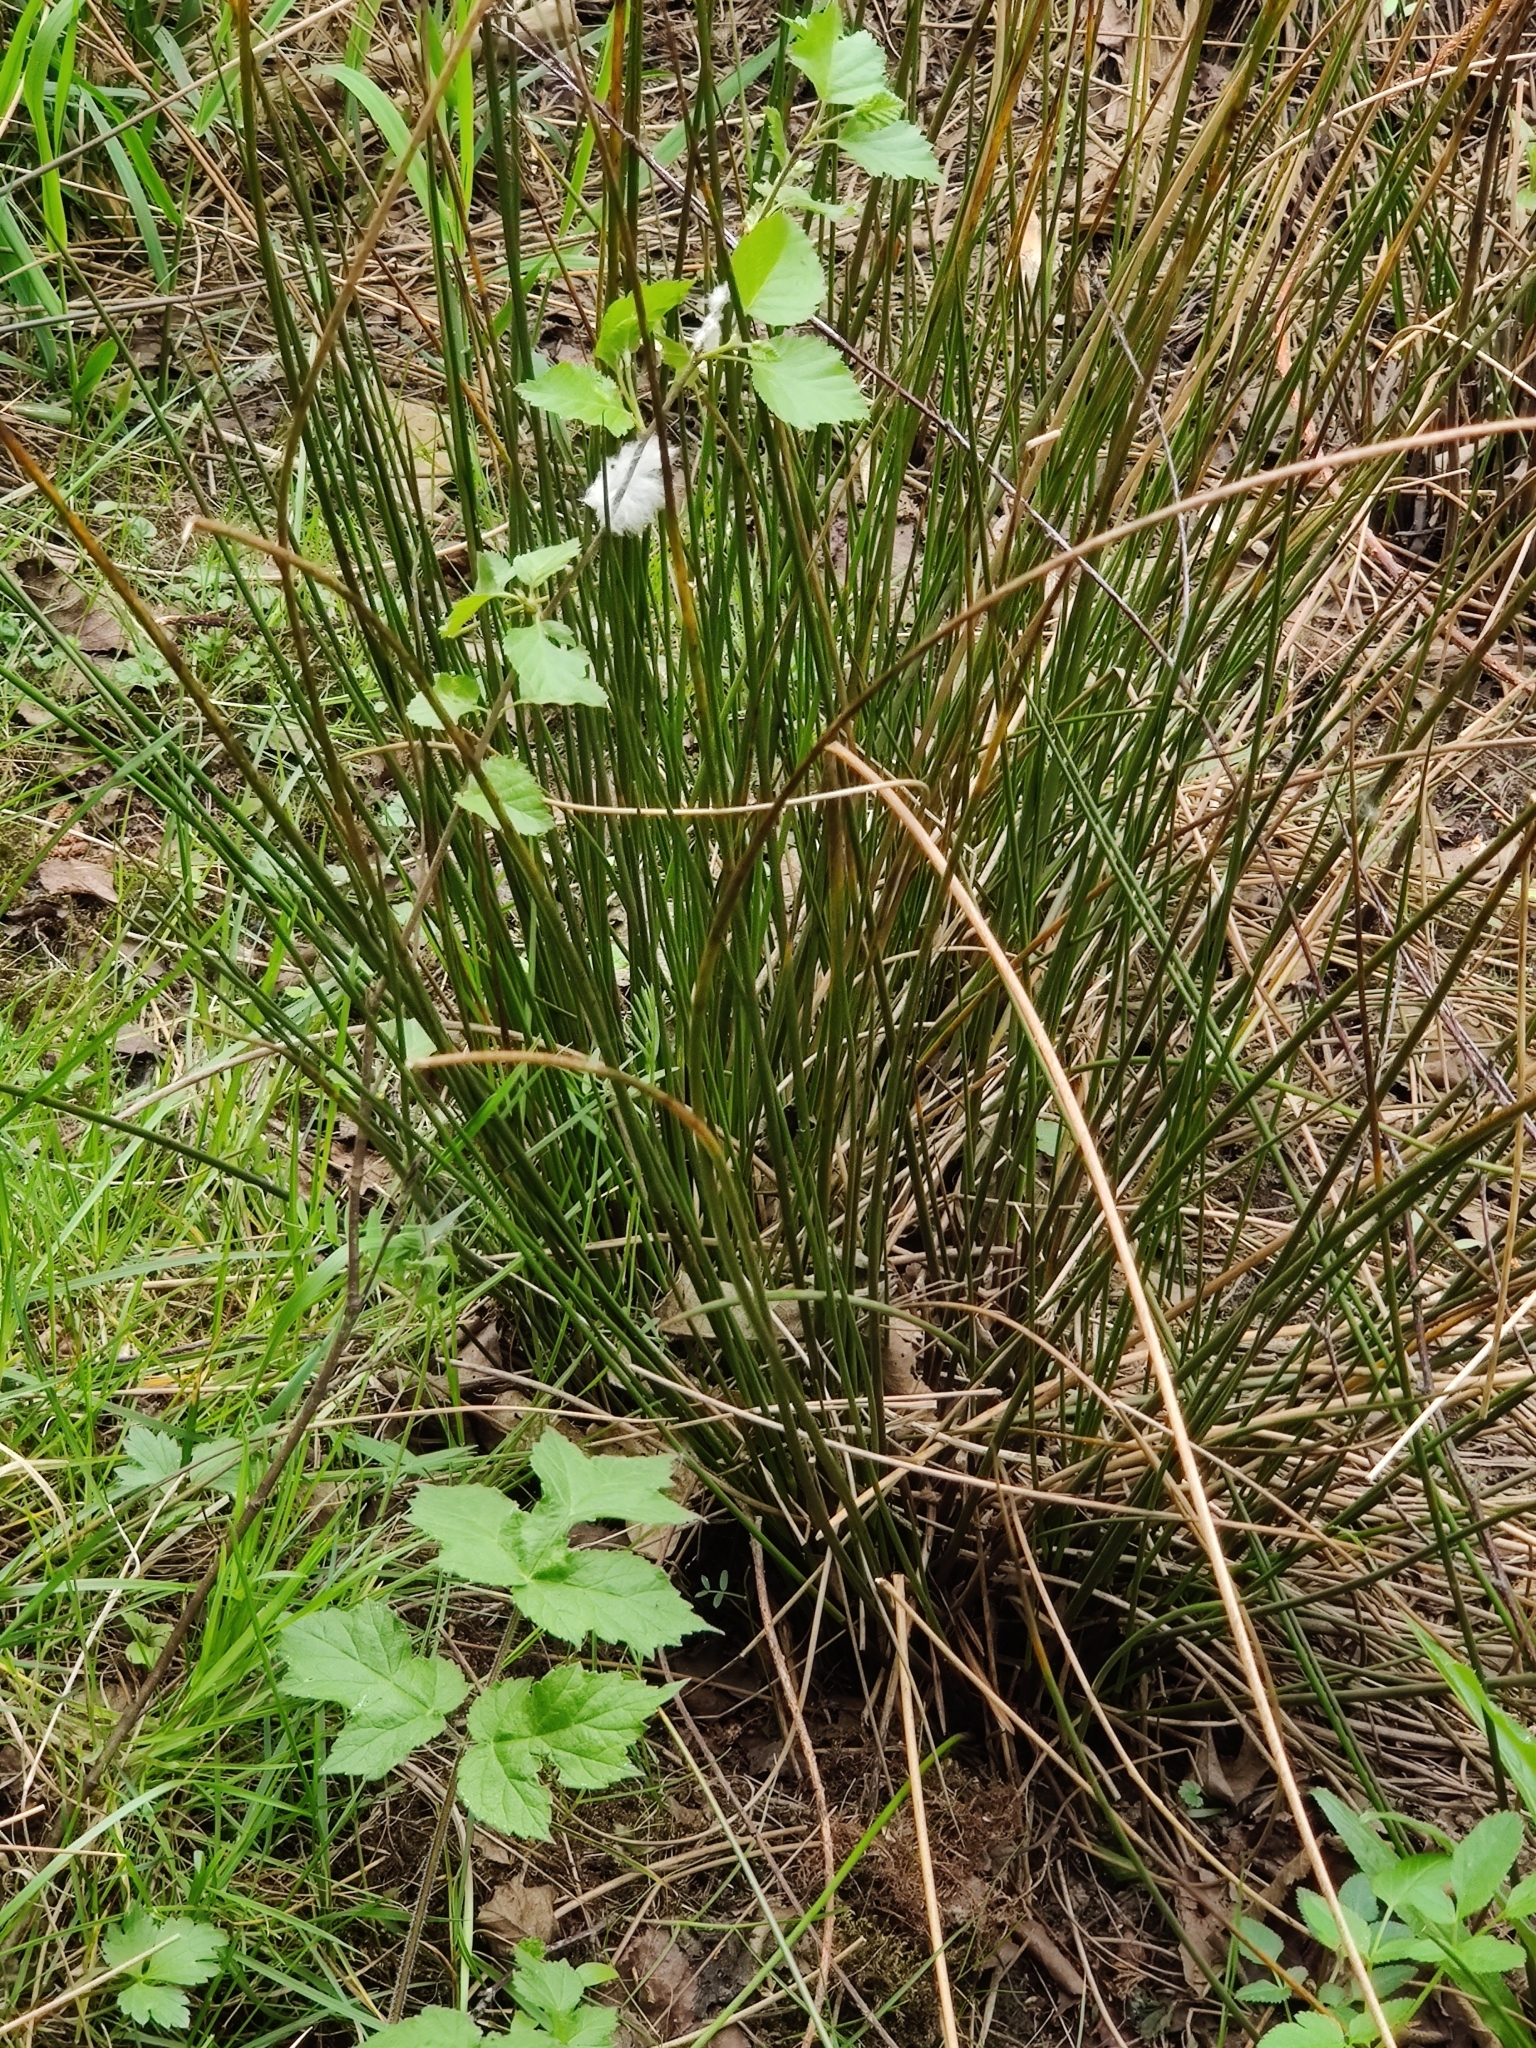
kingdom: Plantae
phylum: Tracheophyta
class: Liliopsida
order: Poales
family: Juncaceae
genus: Juncus
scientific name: Juncus effusus
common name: Soft rush
